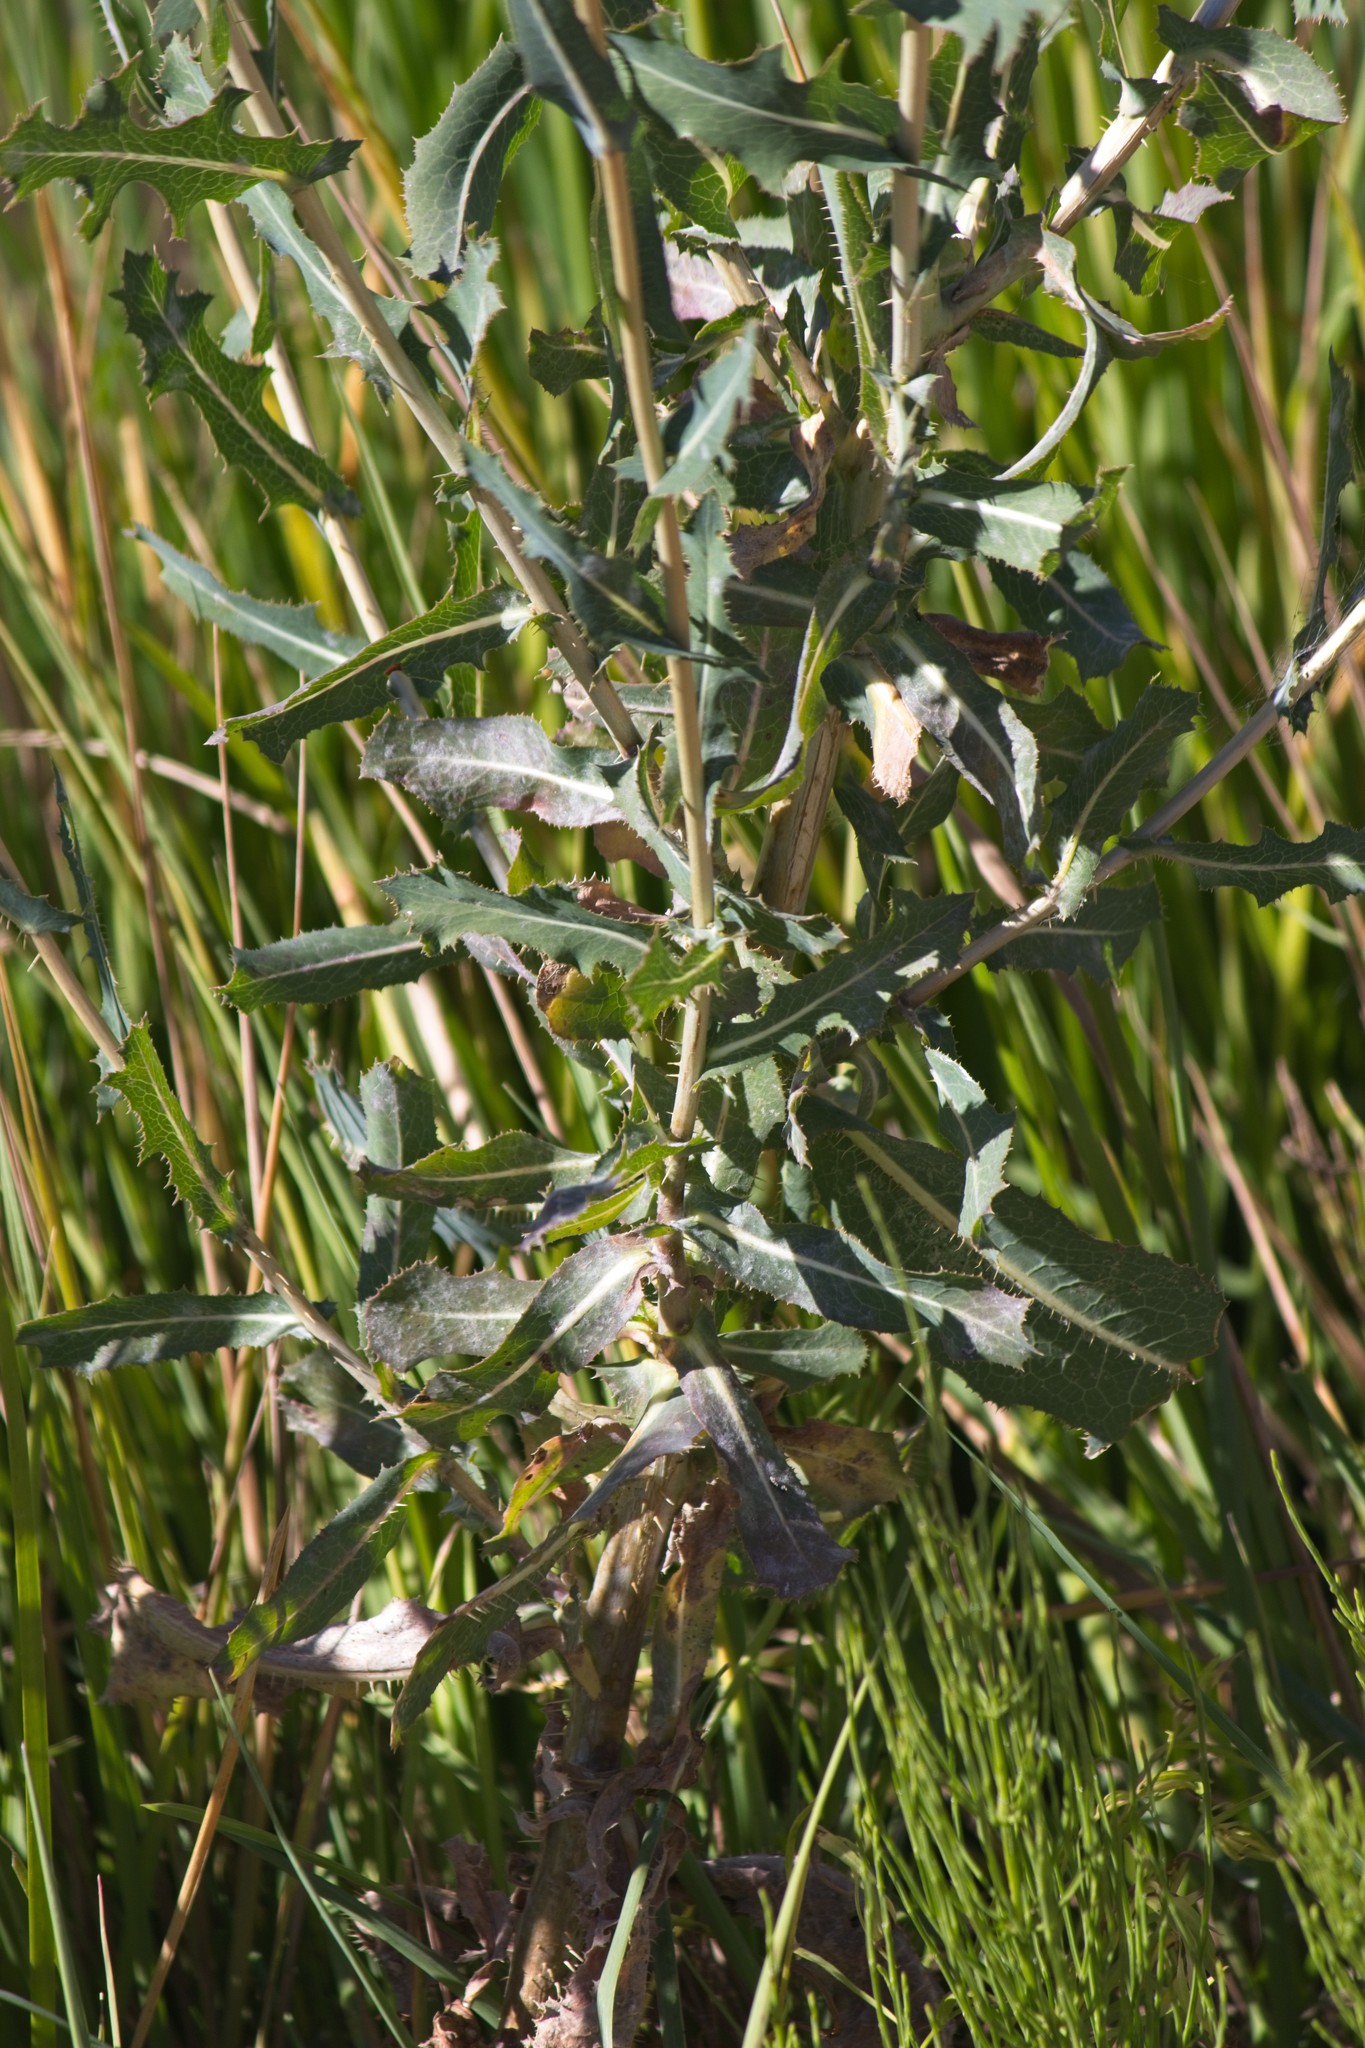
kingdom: Plantae
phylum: Tracheophyta
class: Magnoliopsida
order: Asterales
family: Asteraceae
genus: Lactuca
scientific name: Lactuca serriola
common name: Prickly lettuce
